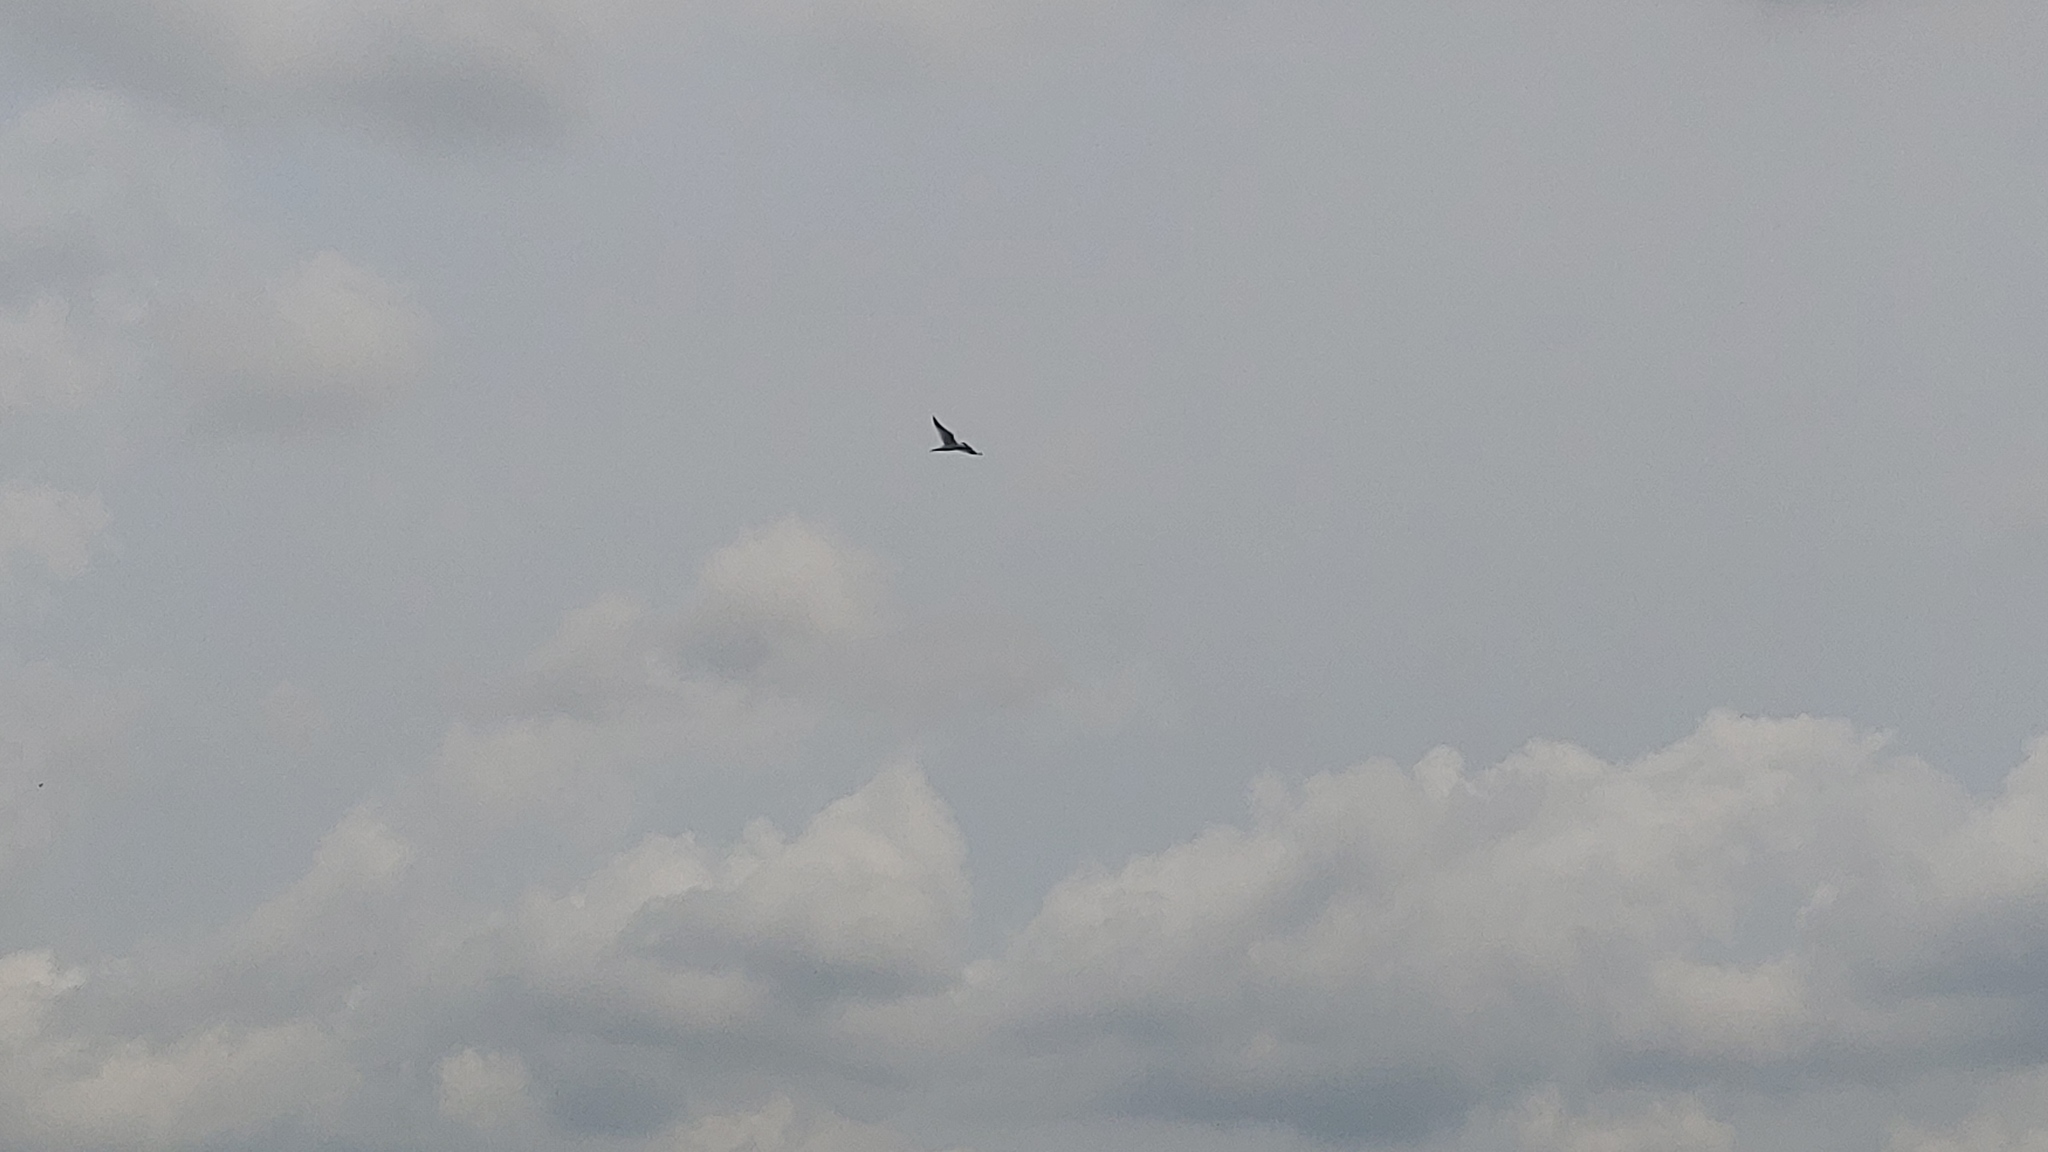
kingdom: Animalia
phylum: Chordata
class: Aves
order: Charadriiformes
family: Laridae
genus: Hydroprogne
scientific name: Hydroprogne caspia
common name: Caspian tern
